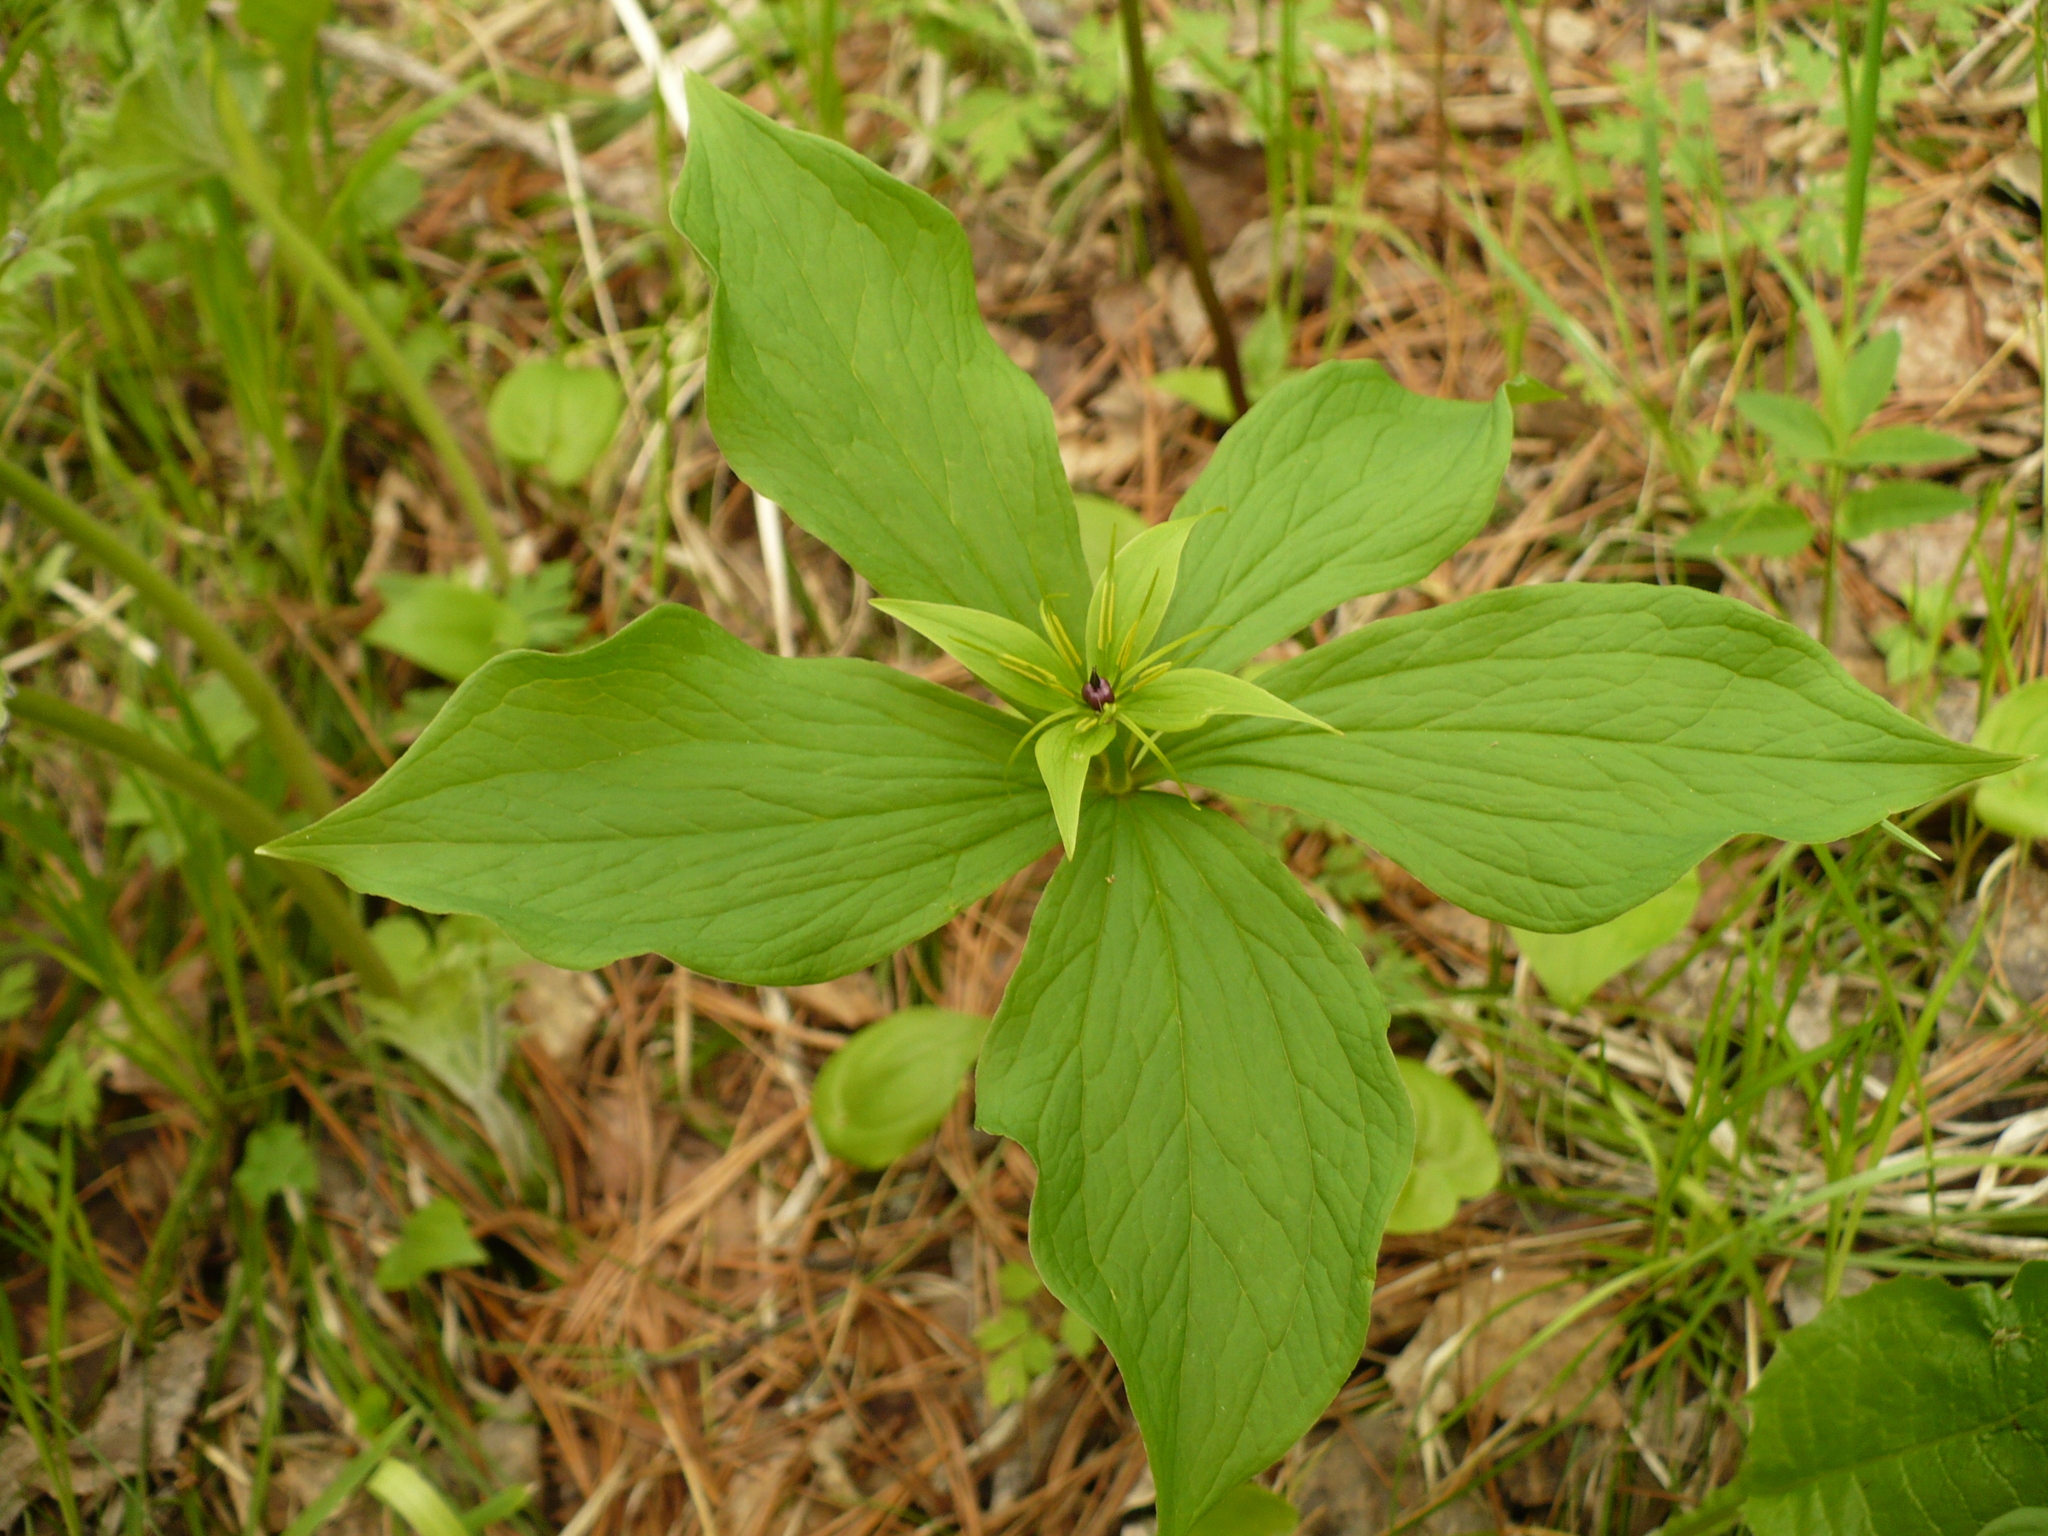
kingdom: Plantae
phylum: Tracheophyta
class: Liliopsida
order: Liliales
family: Melanthiaceae
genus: Paris
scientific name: Paris verticillata
